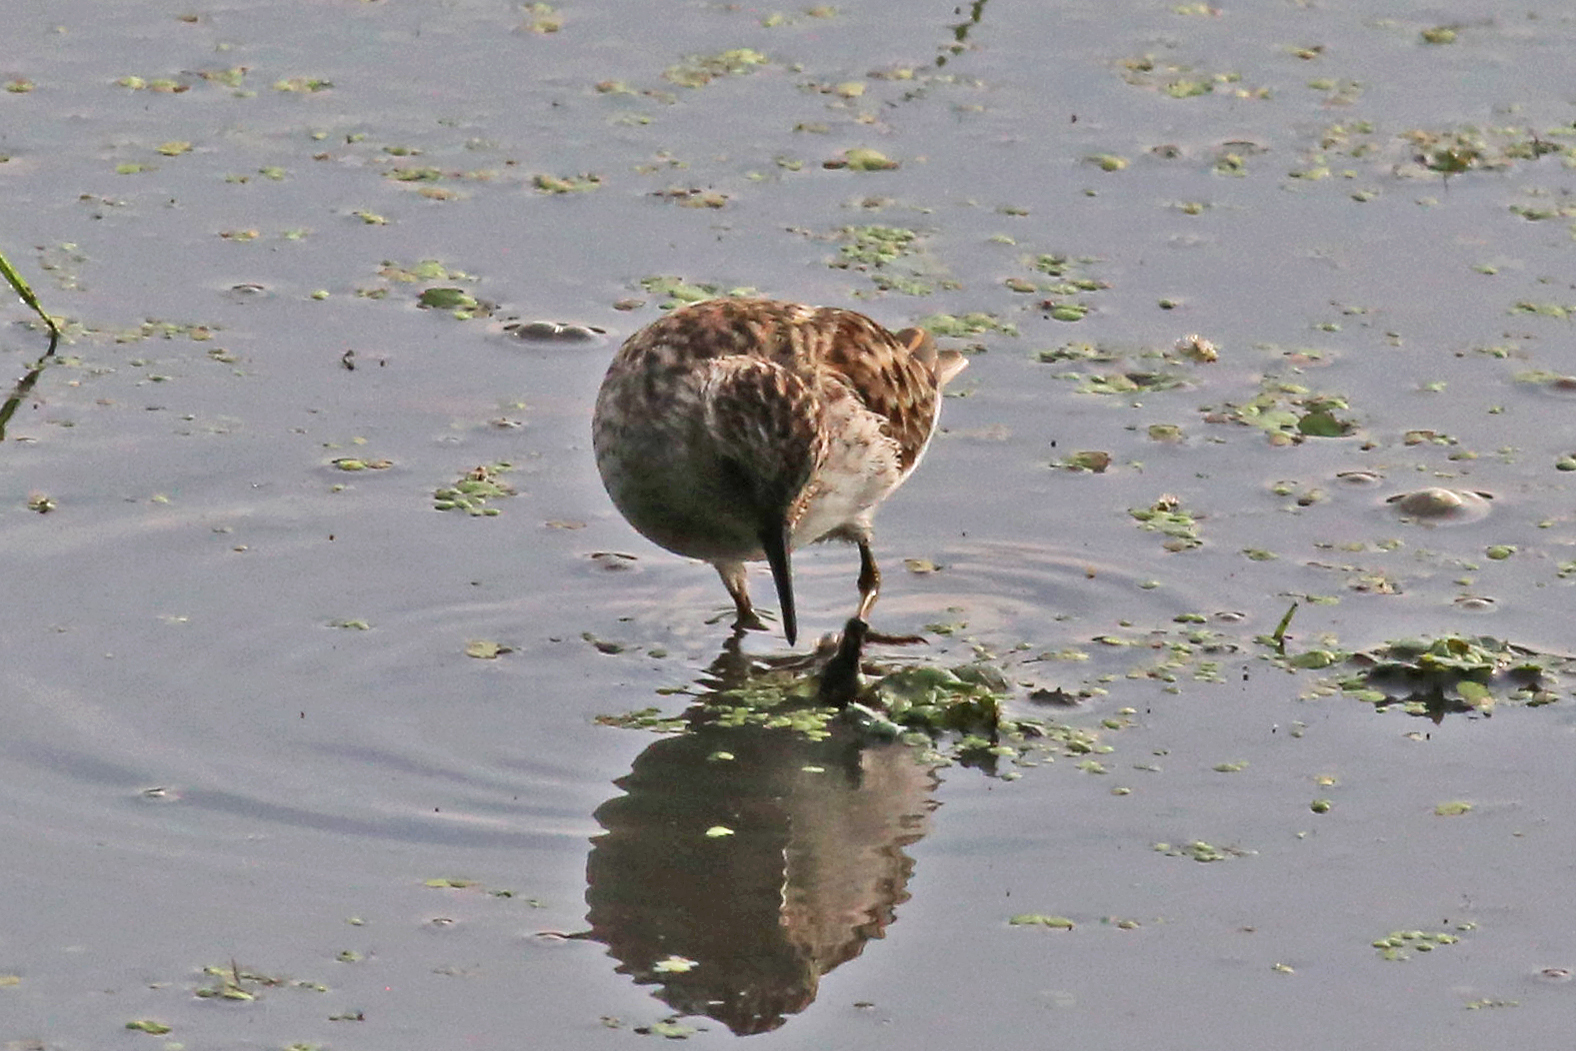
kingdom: Animalia
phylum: Chordata
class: Aves
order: Charadriiformes
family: Scolopacidae
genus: Calidris
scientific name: Calidris minutilla
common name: Least sandpiper
